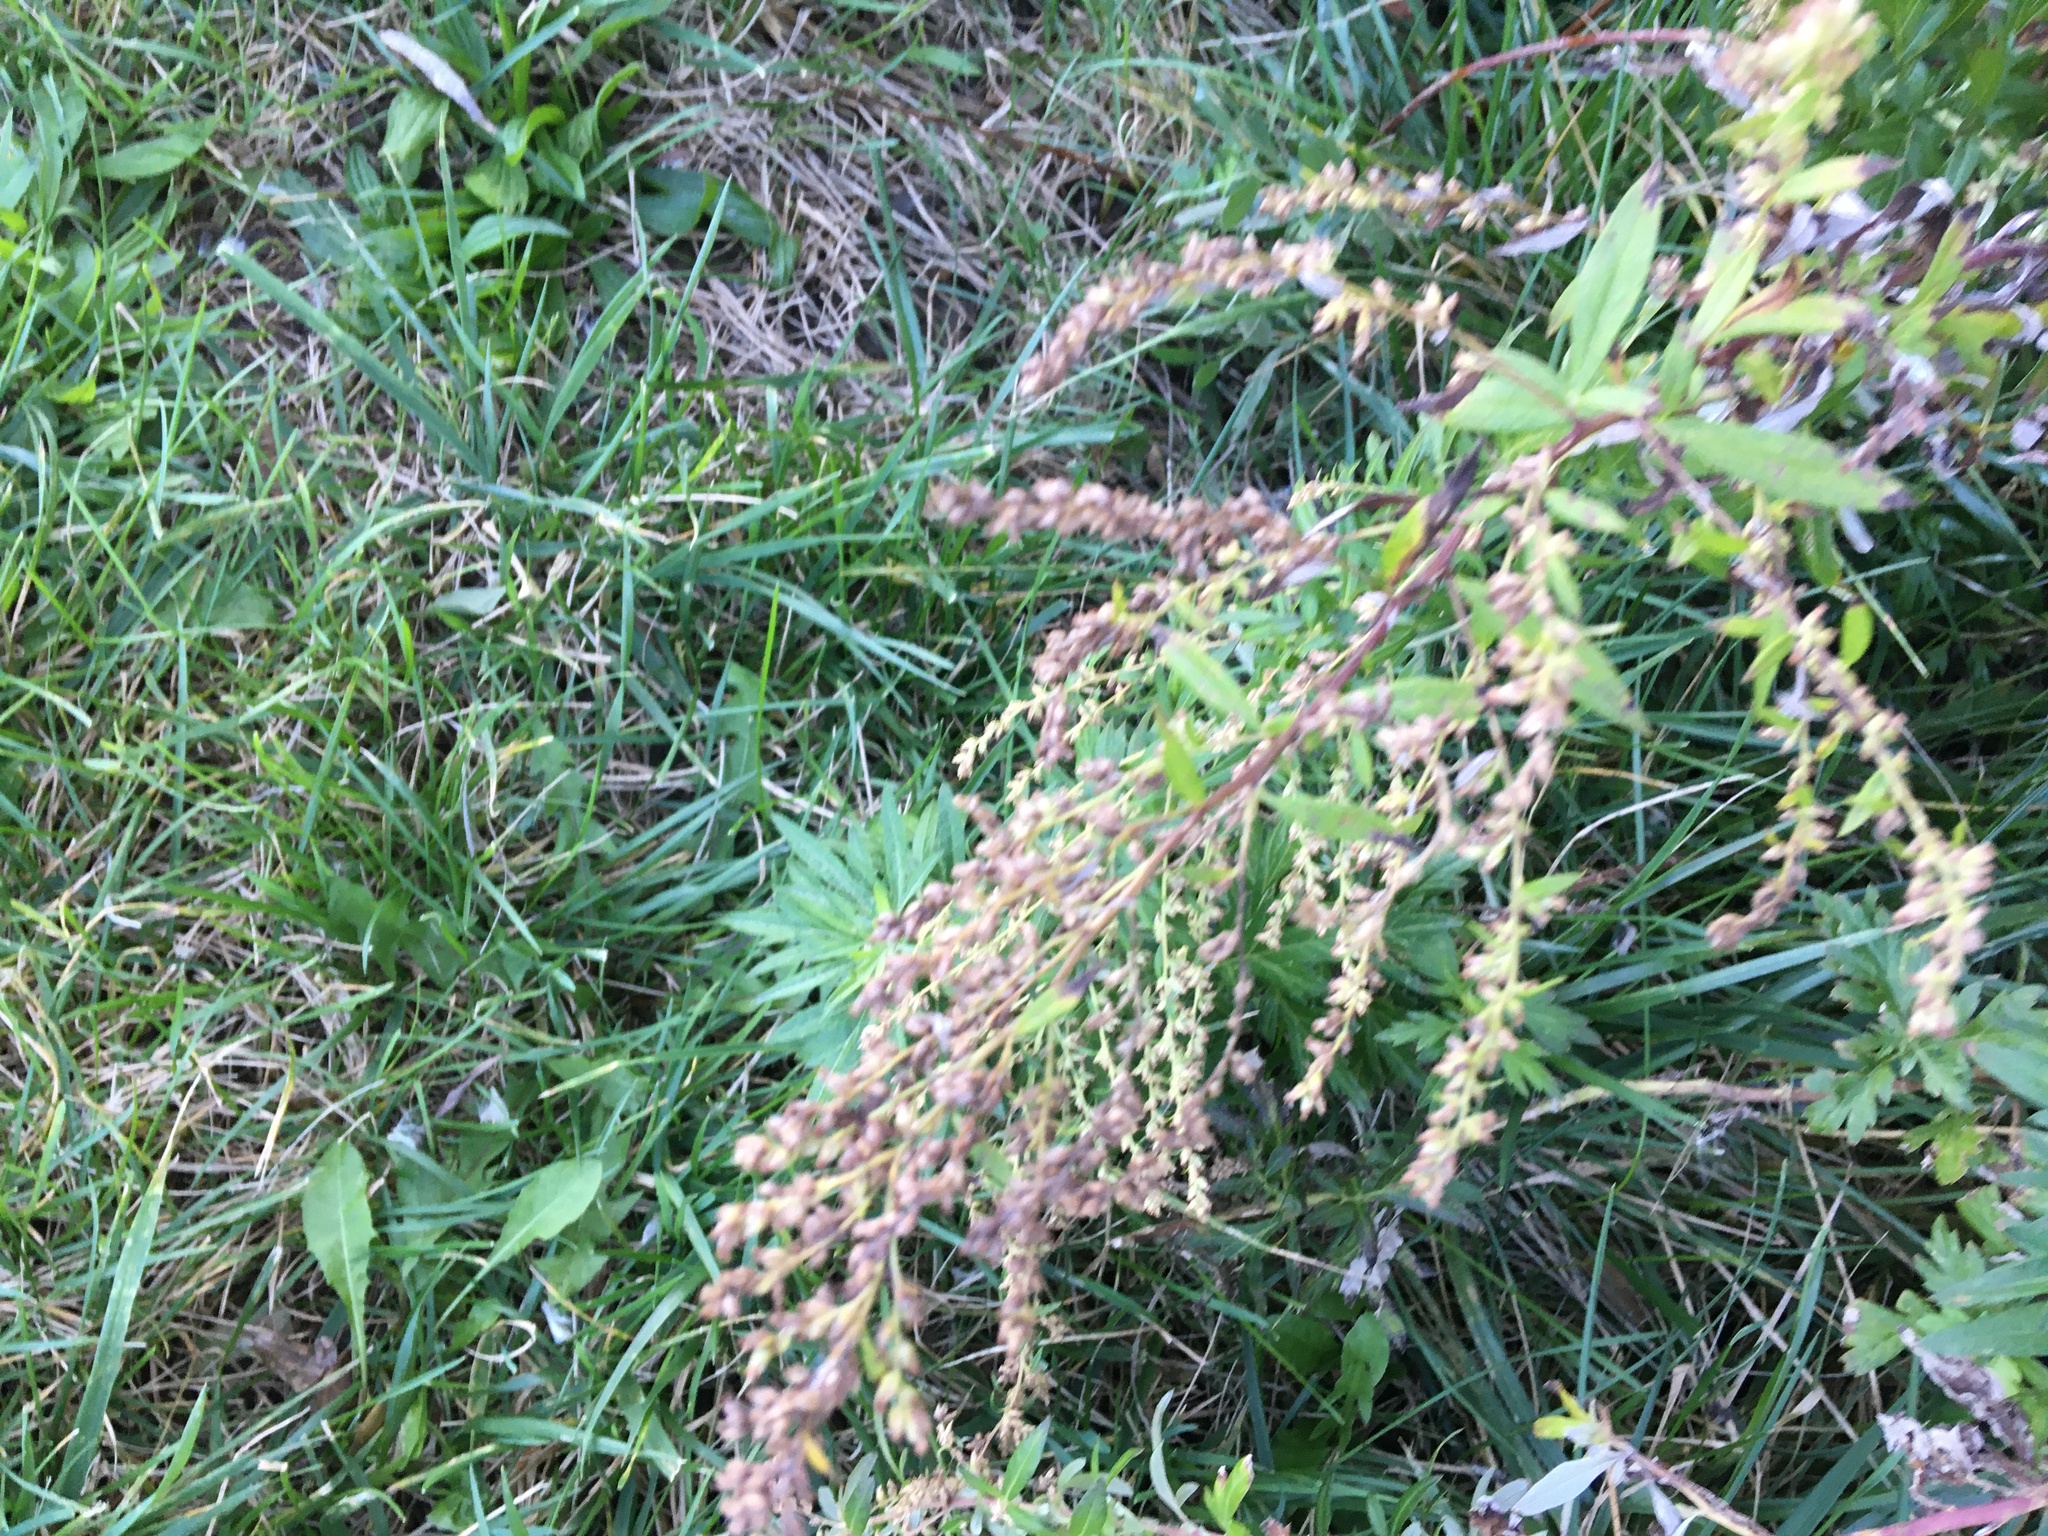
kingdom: Plantae
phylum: Tracheophyta
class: Magnoliopsida
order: Asterales
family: Asteraceae
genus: Artemisia
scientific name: Artemisia vulgaris
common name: Mugwort
